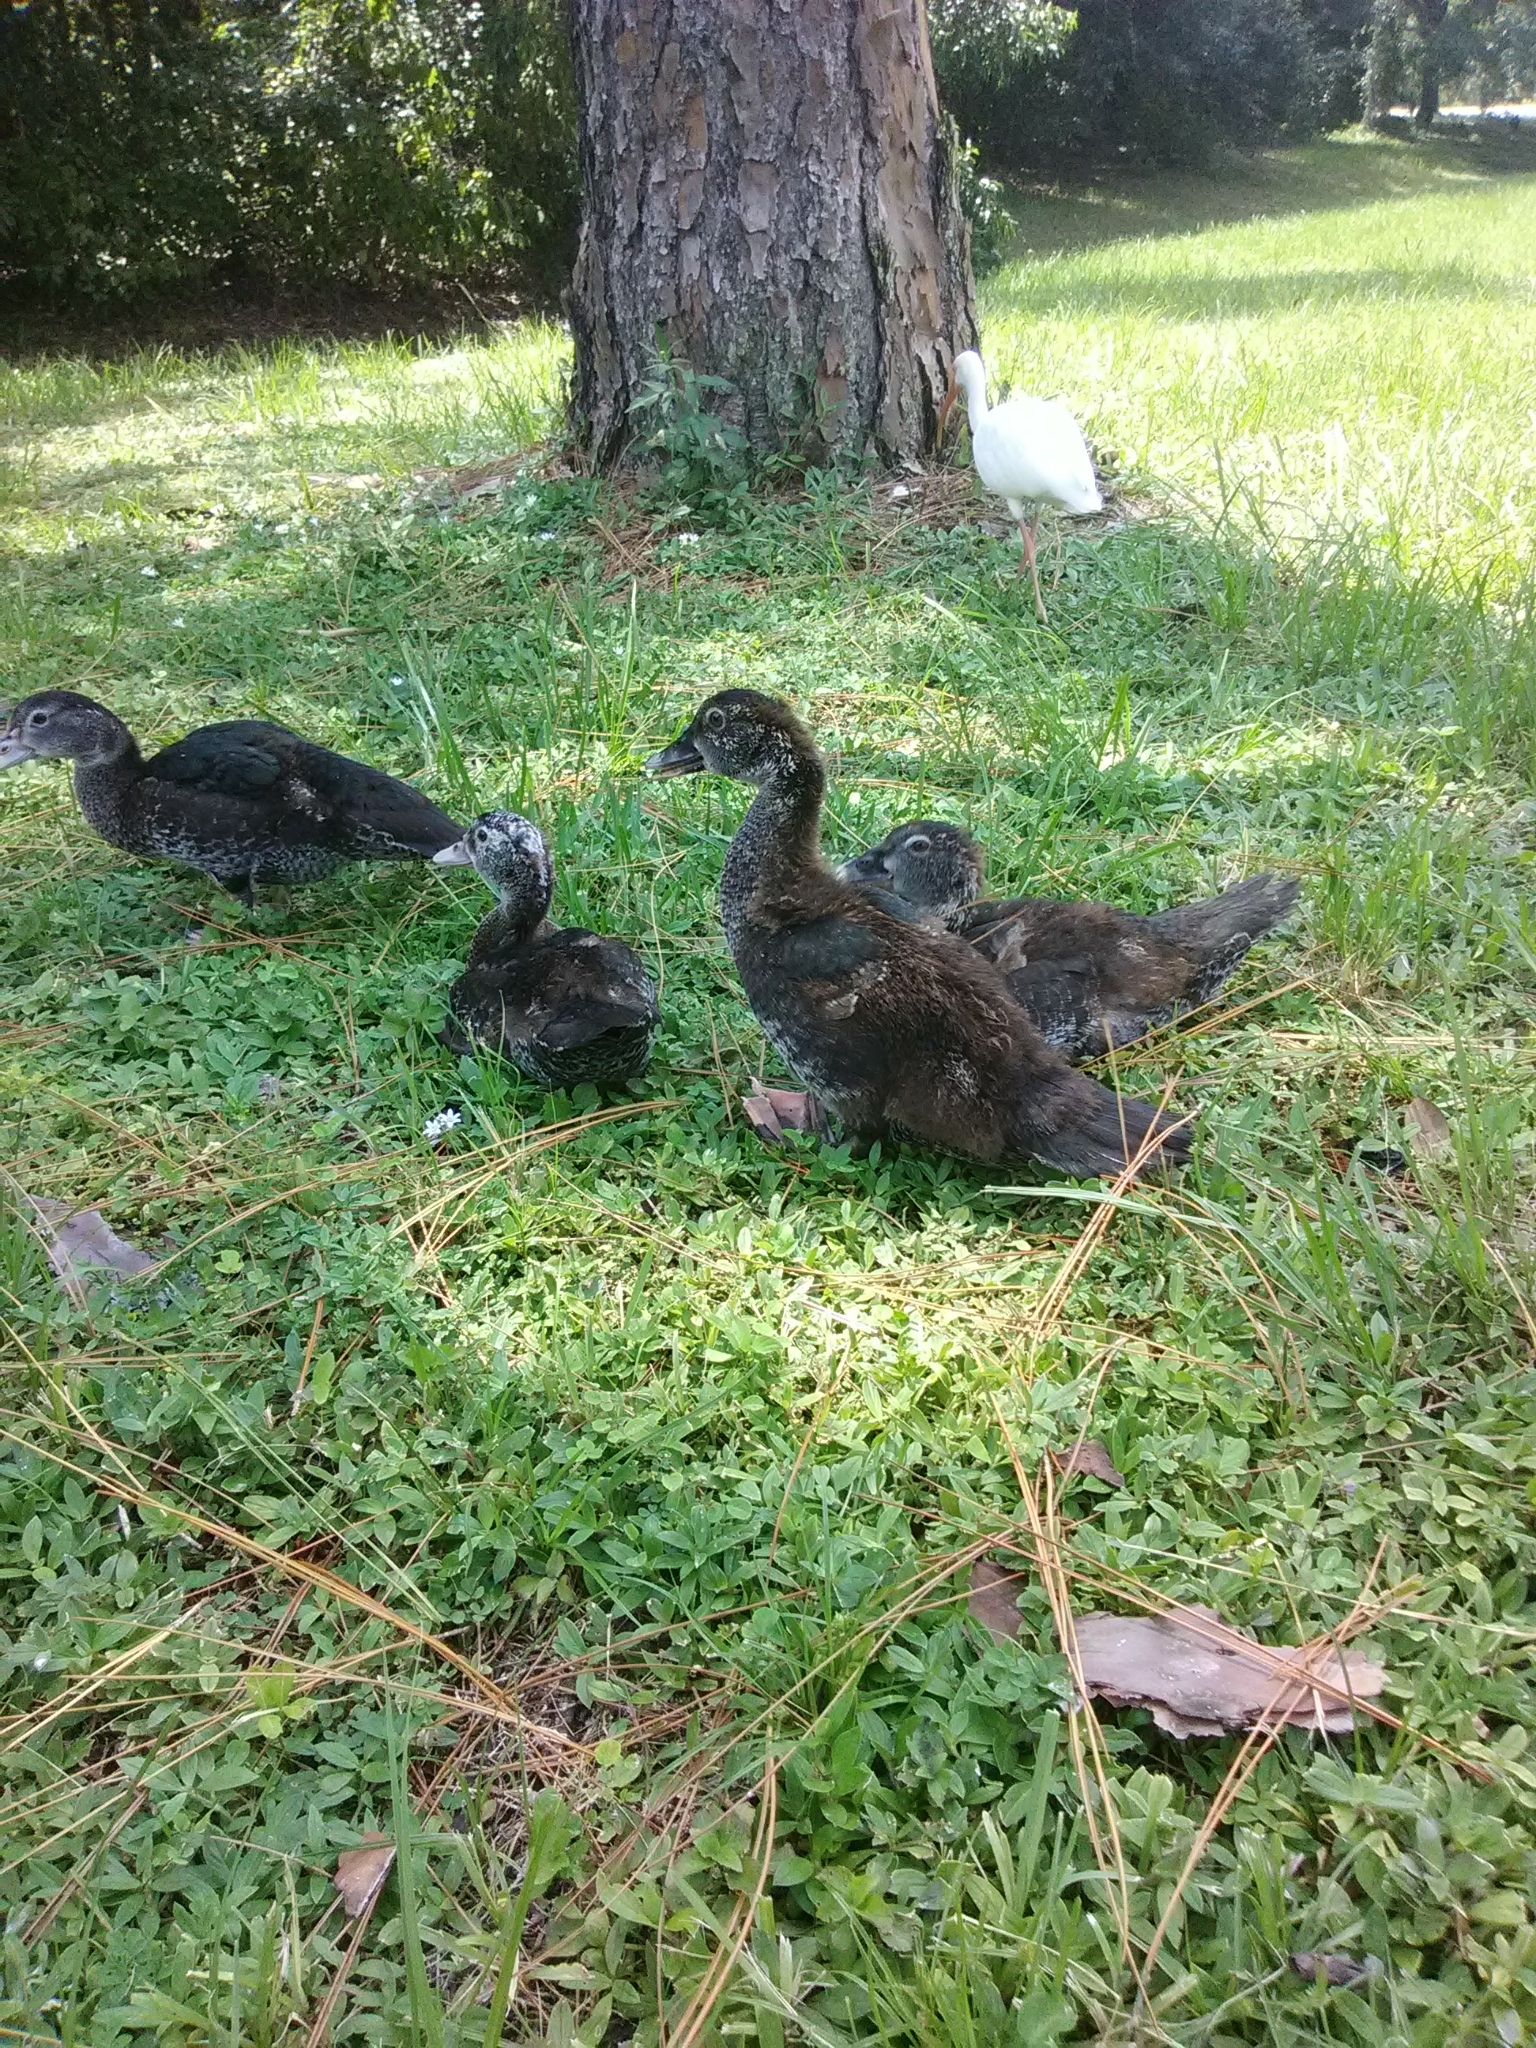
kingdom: Animalia
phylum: Chordata
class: Aves
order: Anseriformes
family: Anatidae
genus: Cairina
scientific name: Cairina moschata
